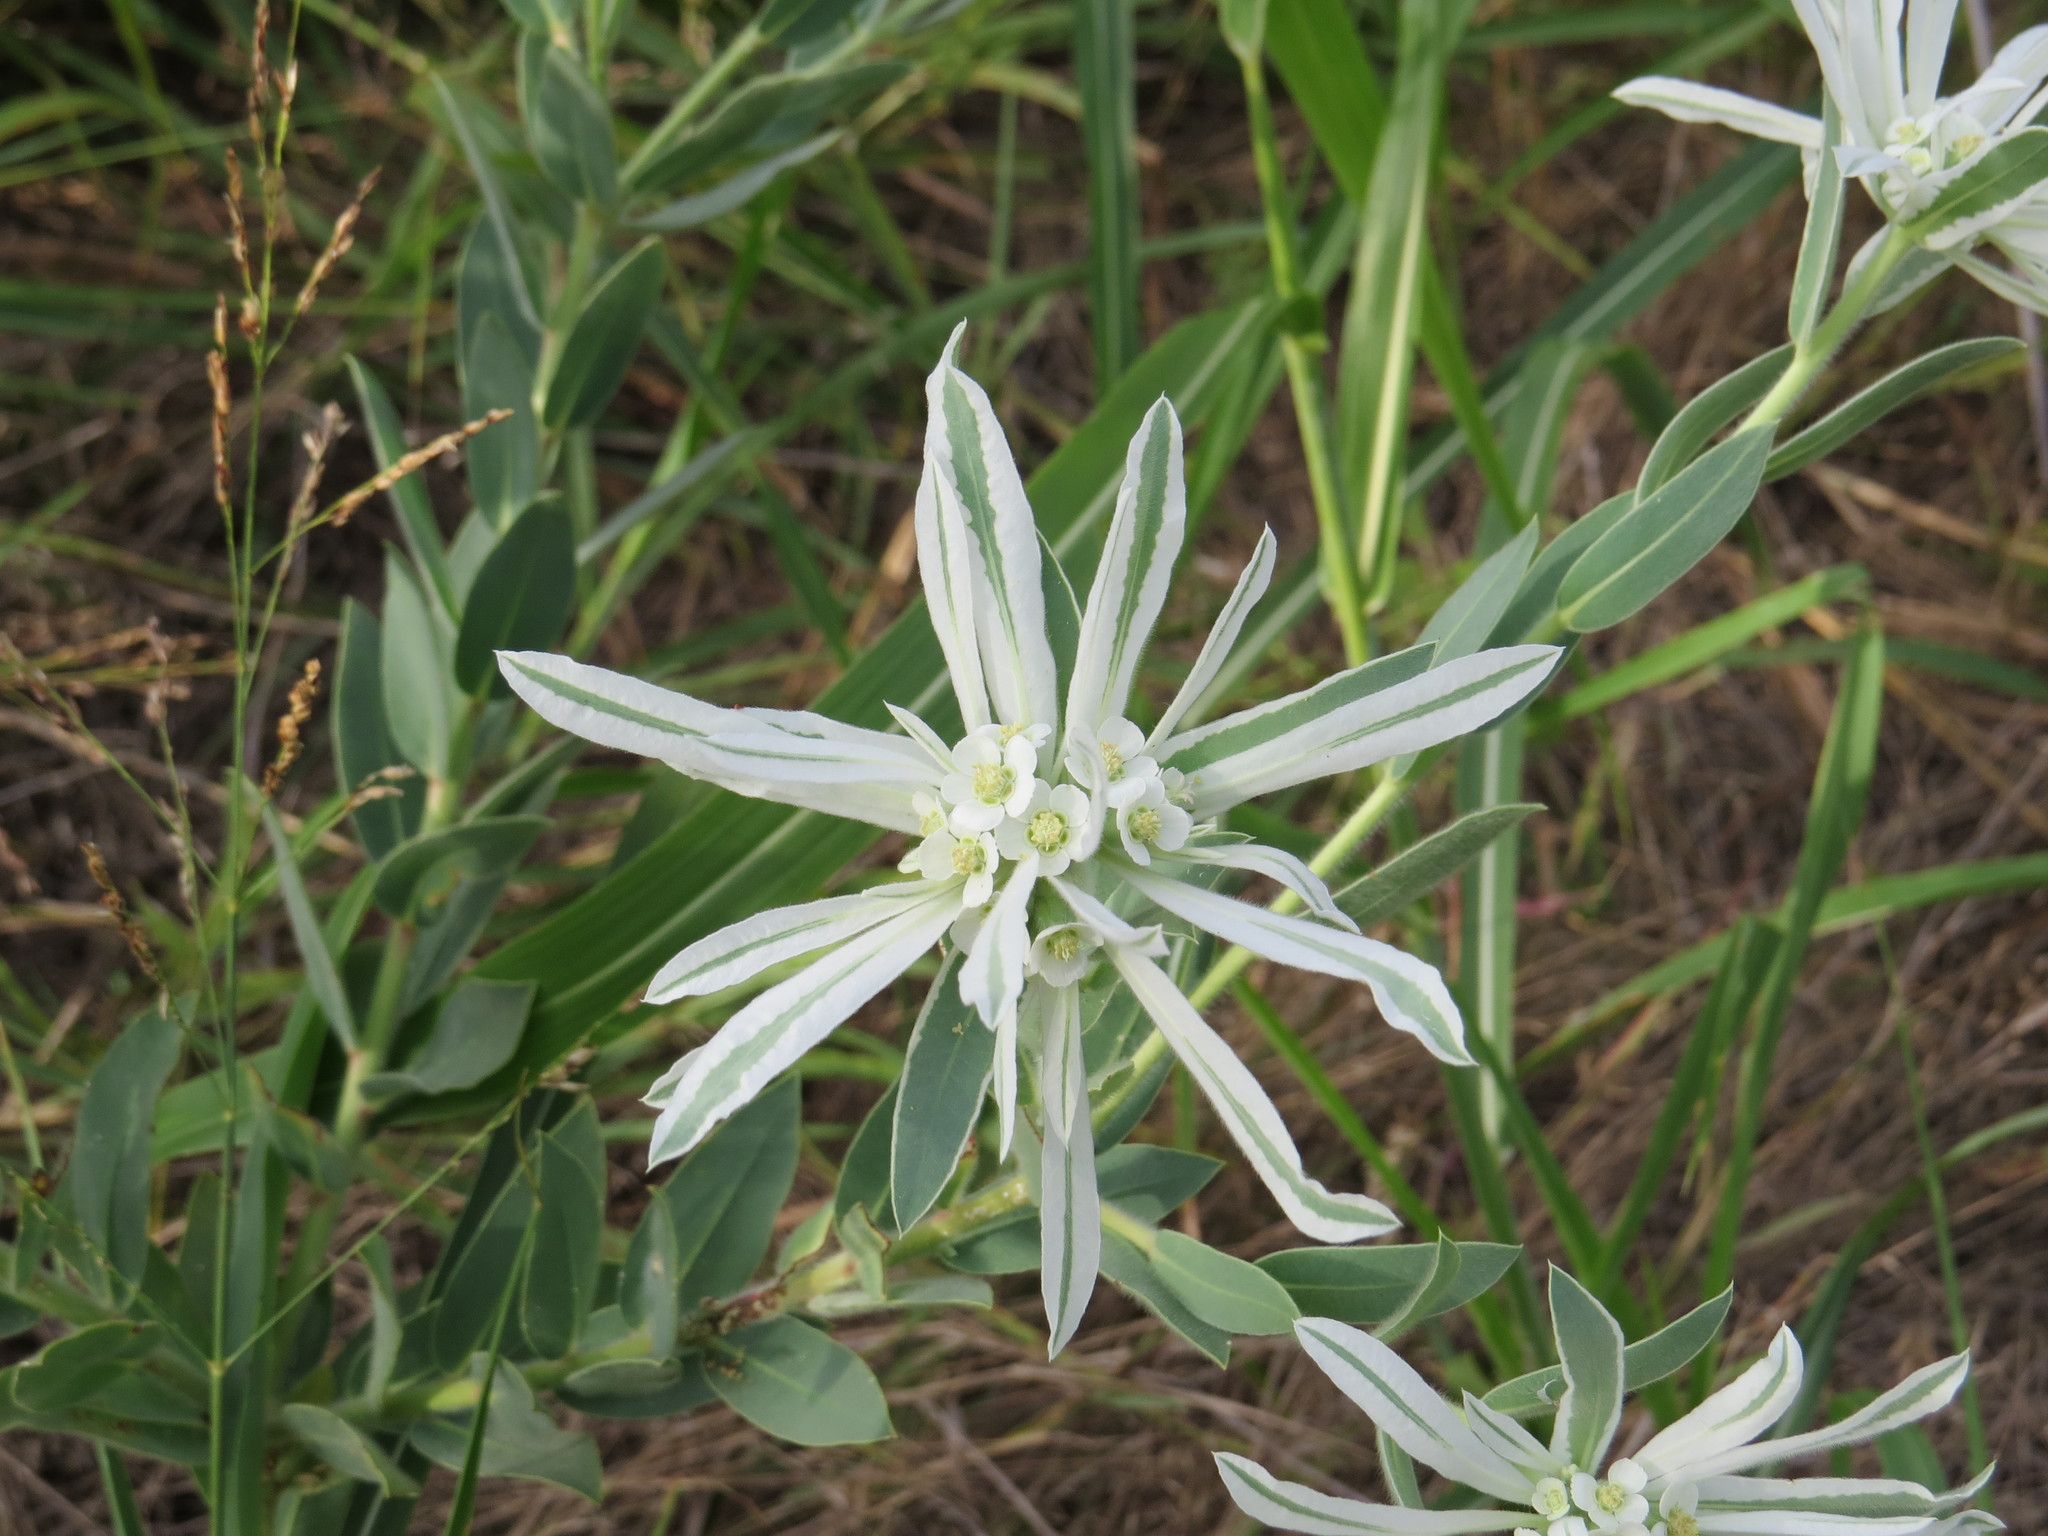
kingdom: Plantae
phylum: Tracheophyta
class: Magnoliopsida
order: Malpighiales
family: Euphorbiaceae
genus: Euphorbia
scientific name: Euphorbia bicolor
